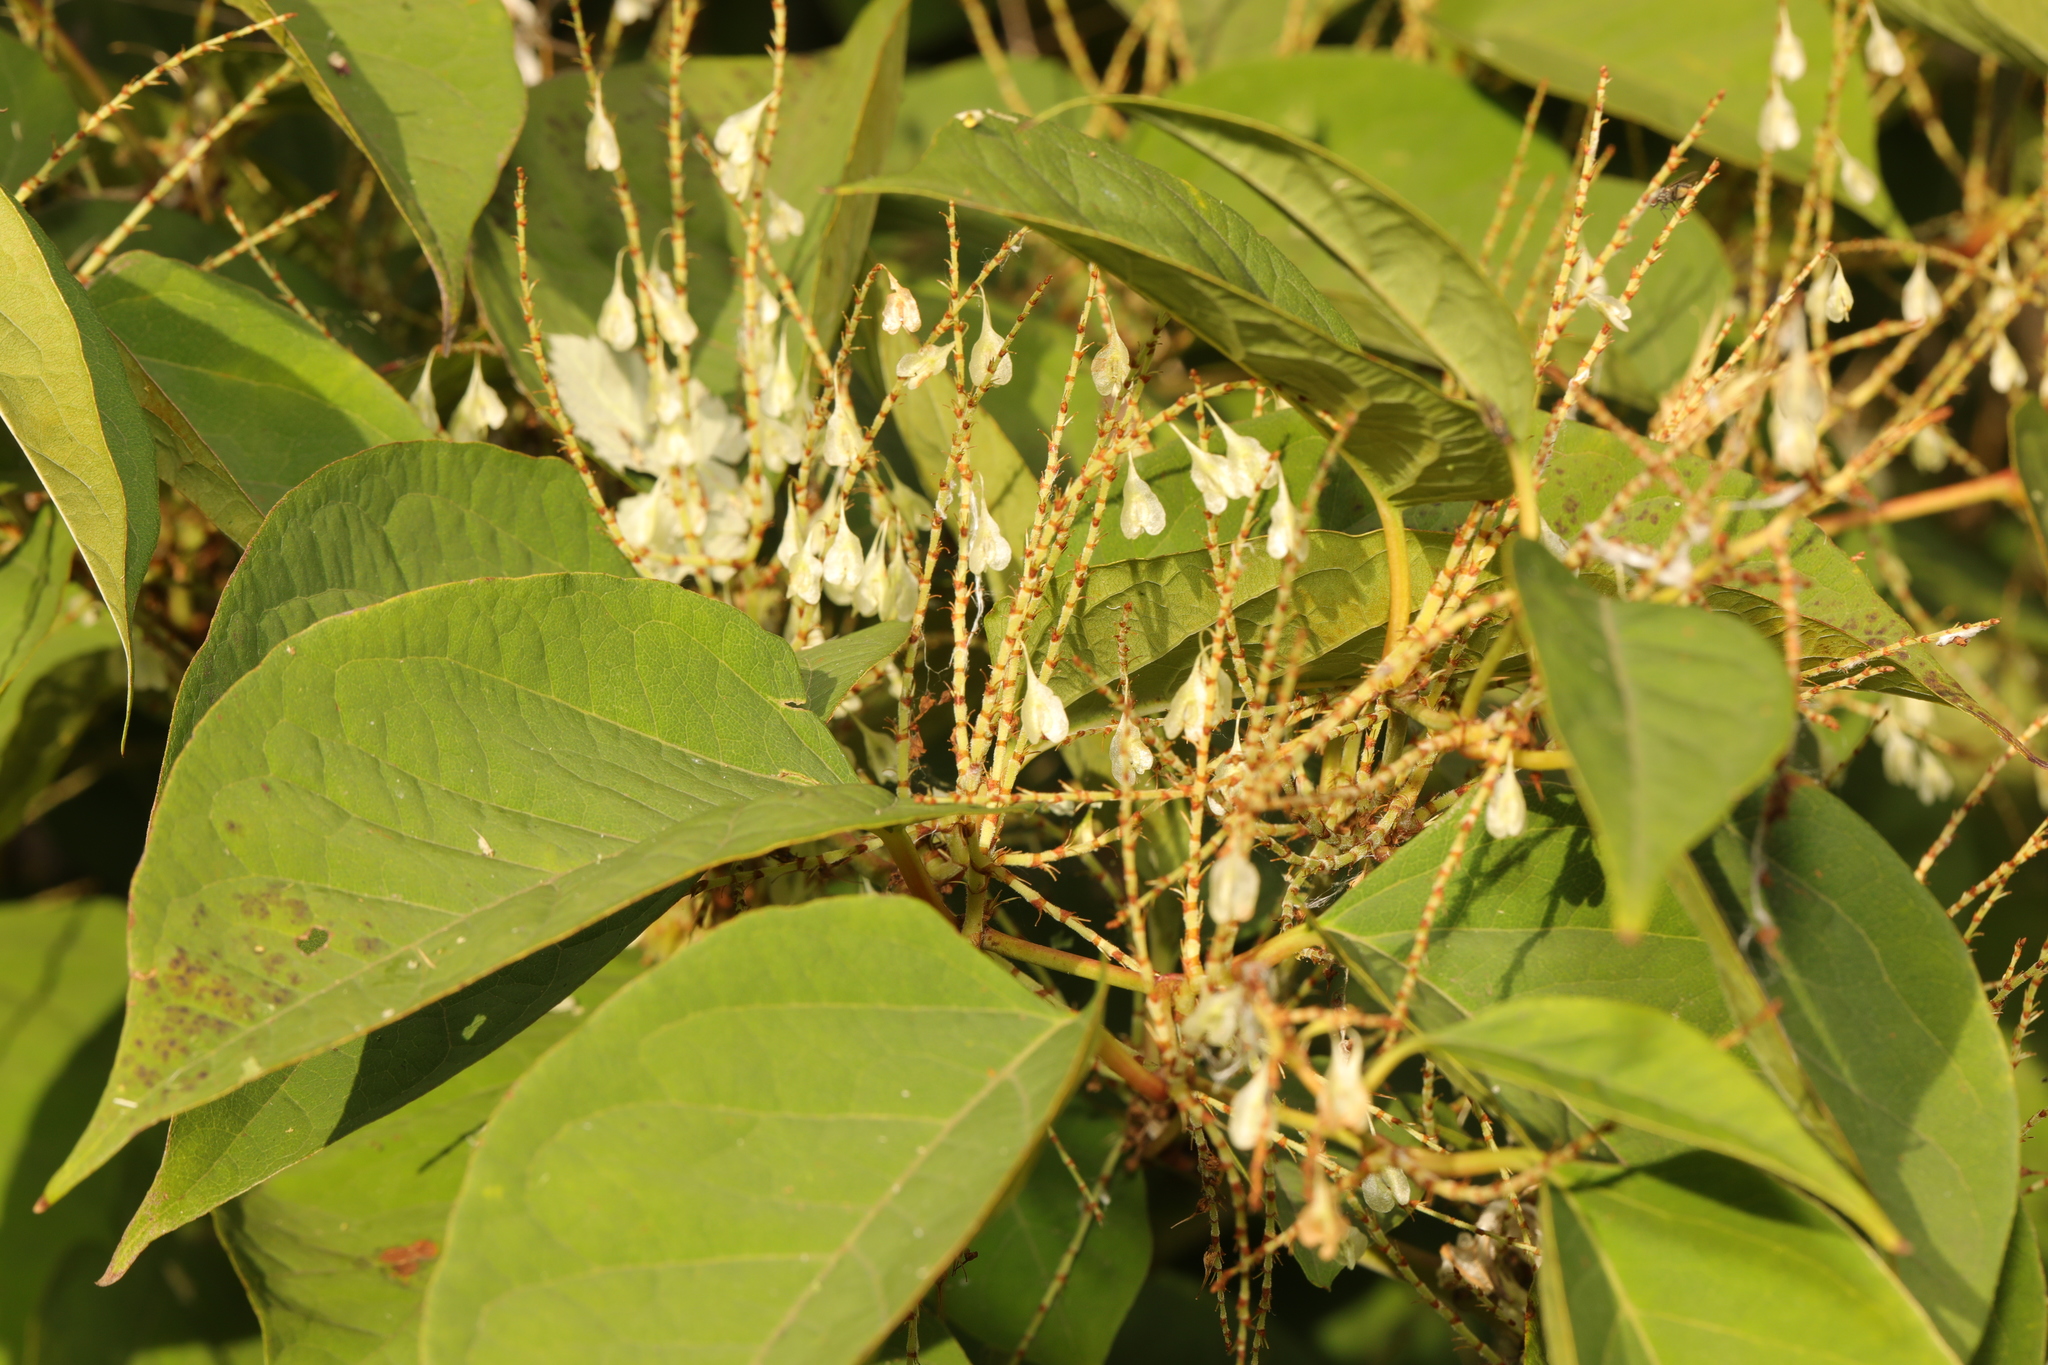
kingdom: Plantae
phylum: Tracheophyta
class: Magnoliopsida
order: Caryophyllales
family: Polygonaceae
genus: Reynoutria
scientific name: Reynoutria japonica
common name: Japanese knotweed
